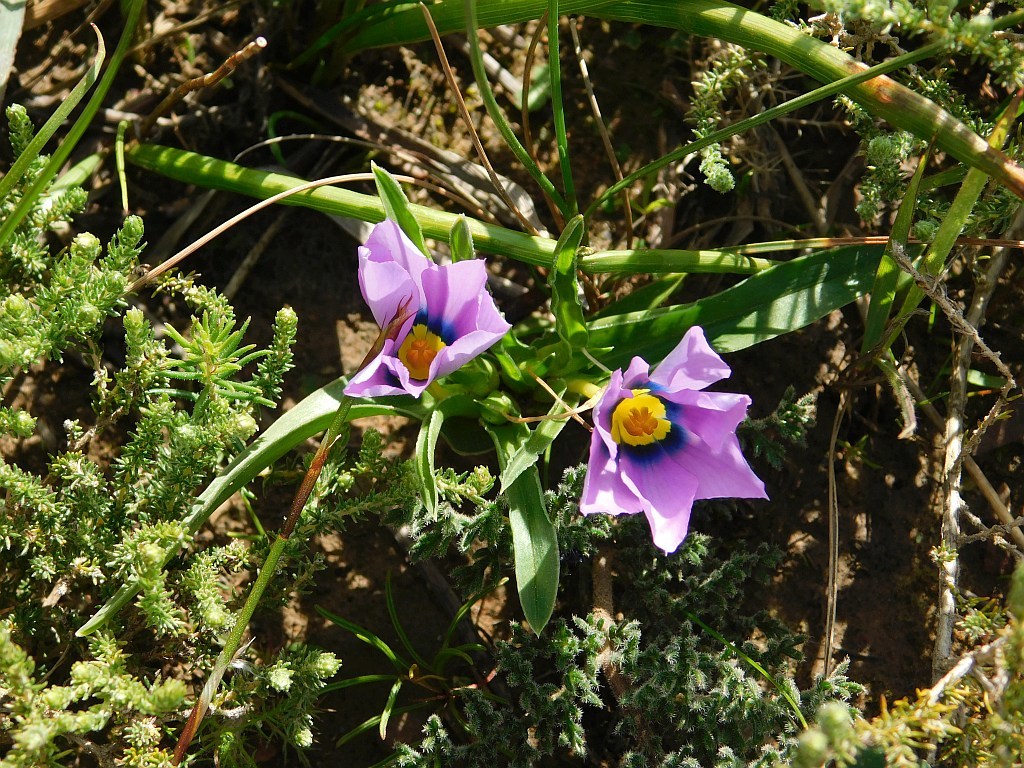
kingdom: Plantae
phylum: Tracheophyta
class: Liliopsida
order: Asparagales
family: Iridaceae
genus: Moraea
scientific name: Moraea barnardiella
